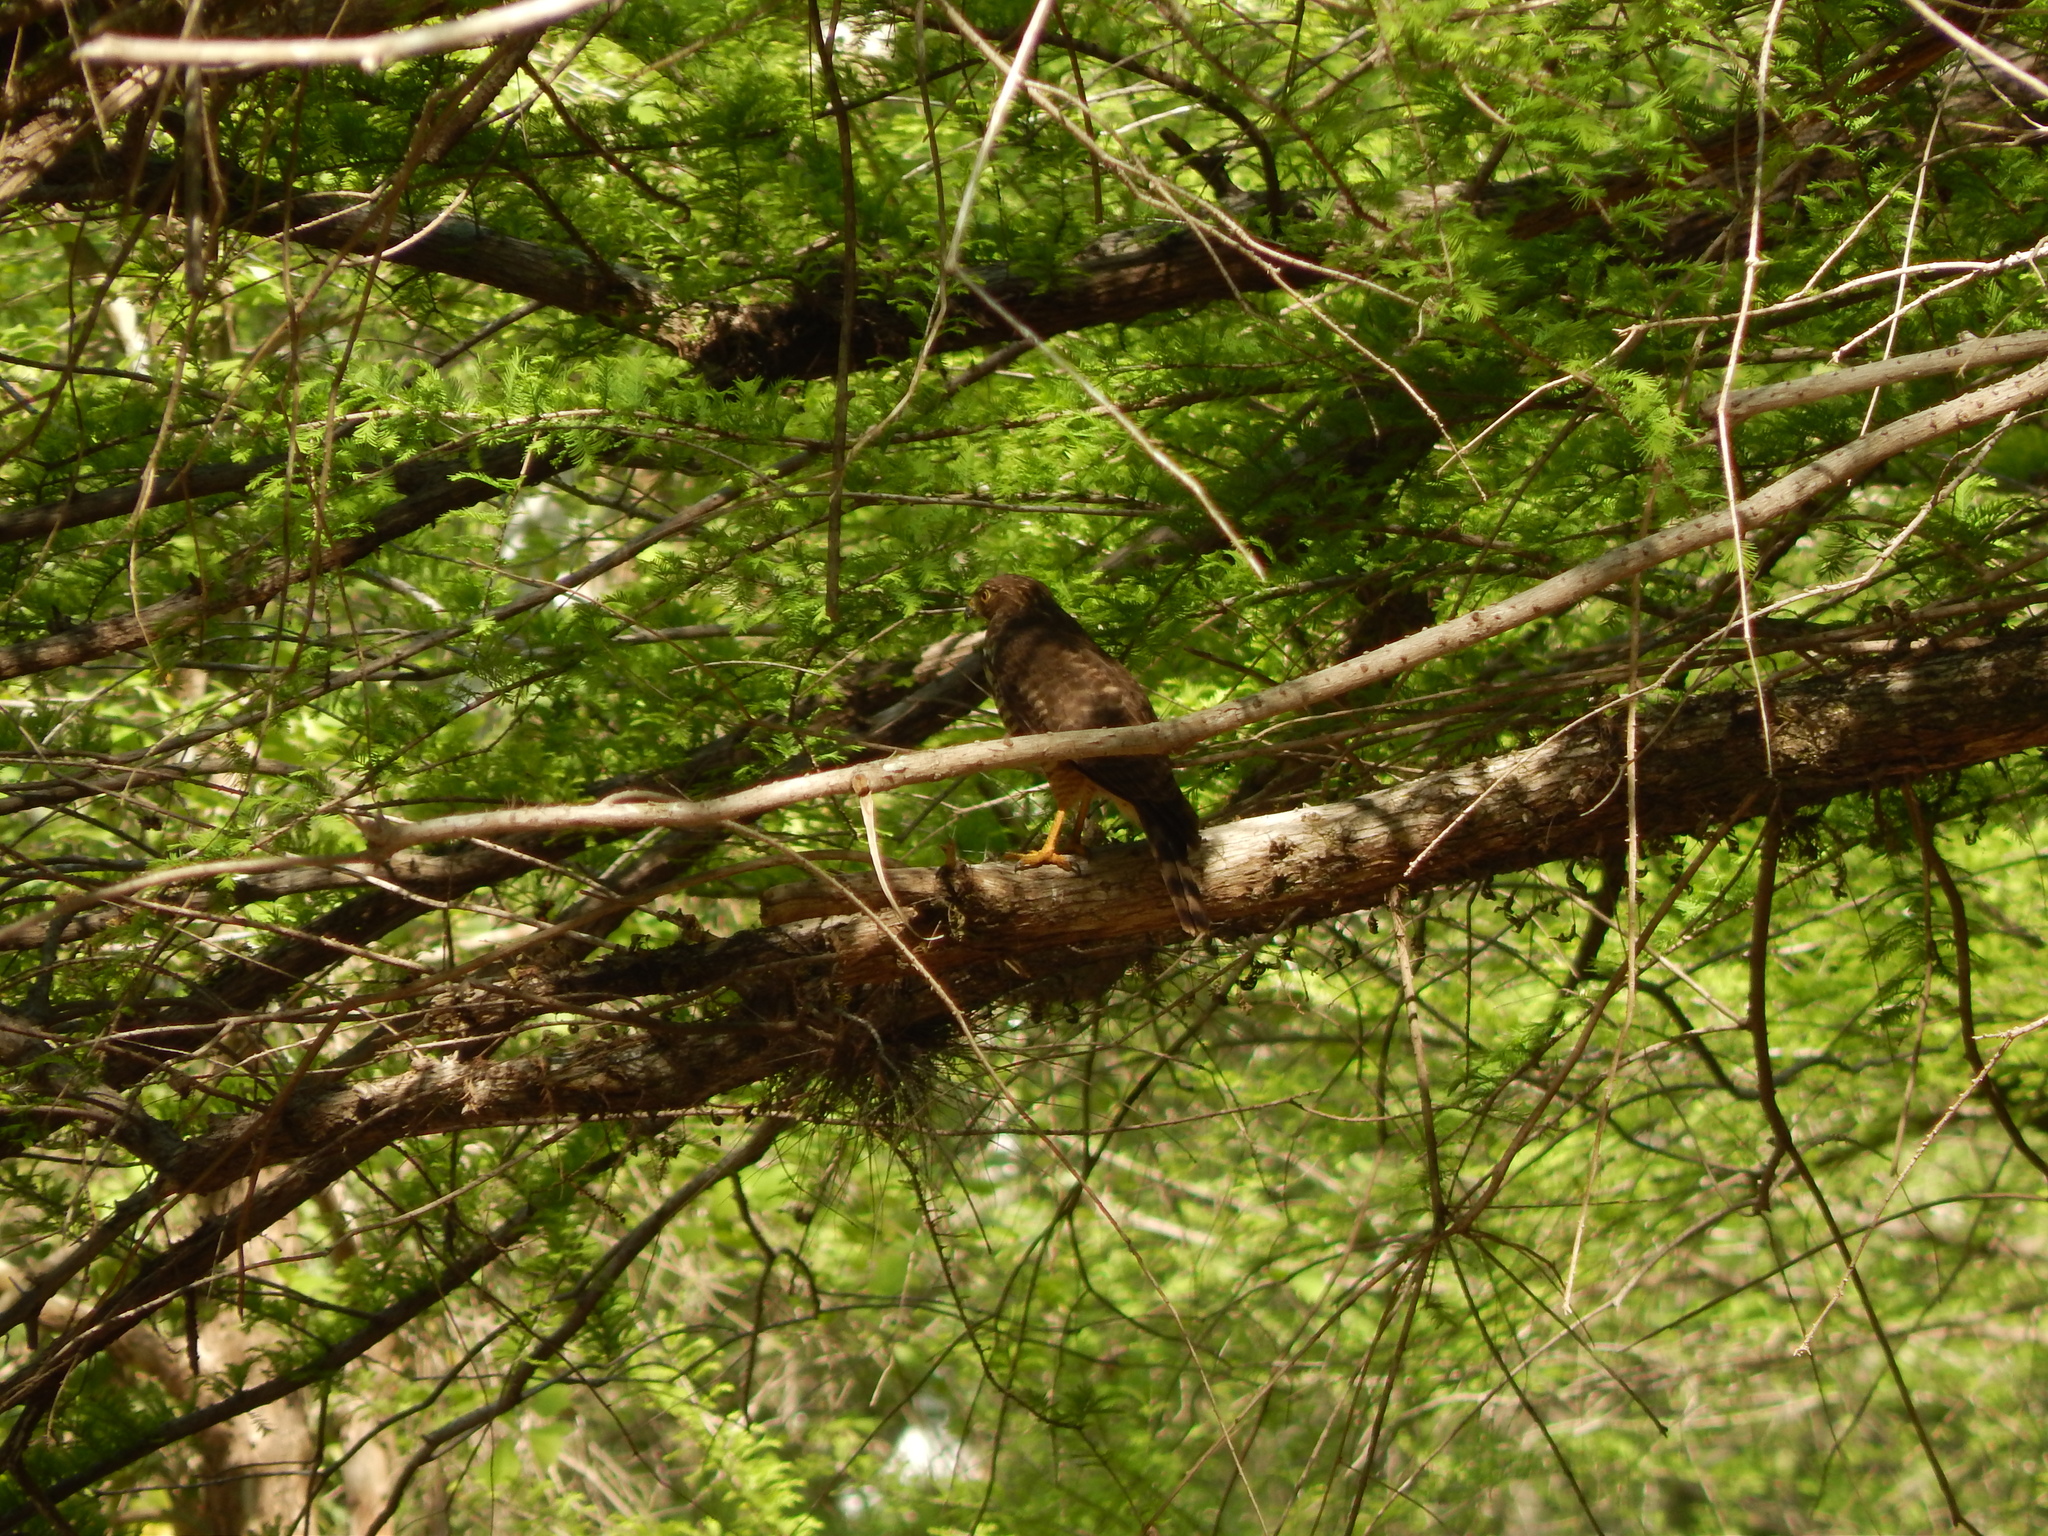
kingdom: Animalia
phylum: Chordata
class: Aves
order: Accipitriformes
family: Accipitridae
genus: Rupornis
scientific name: Rupornis magnirostris
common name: Roadside hawk
